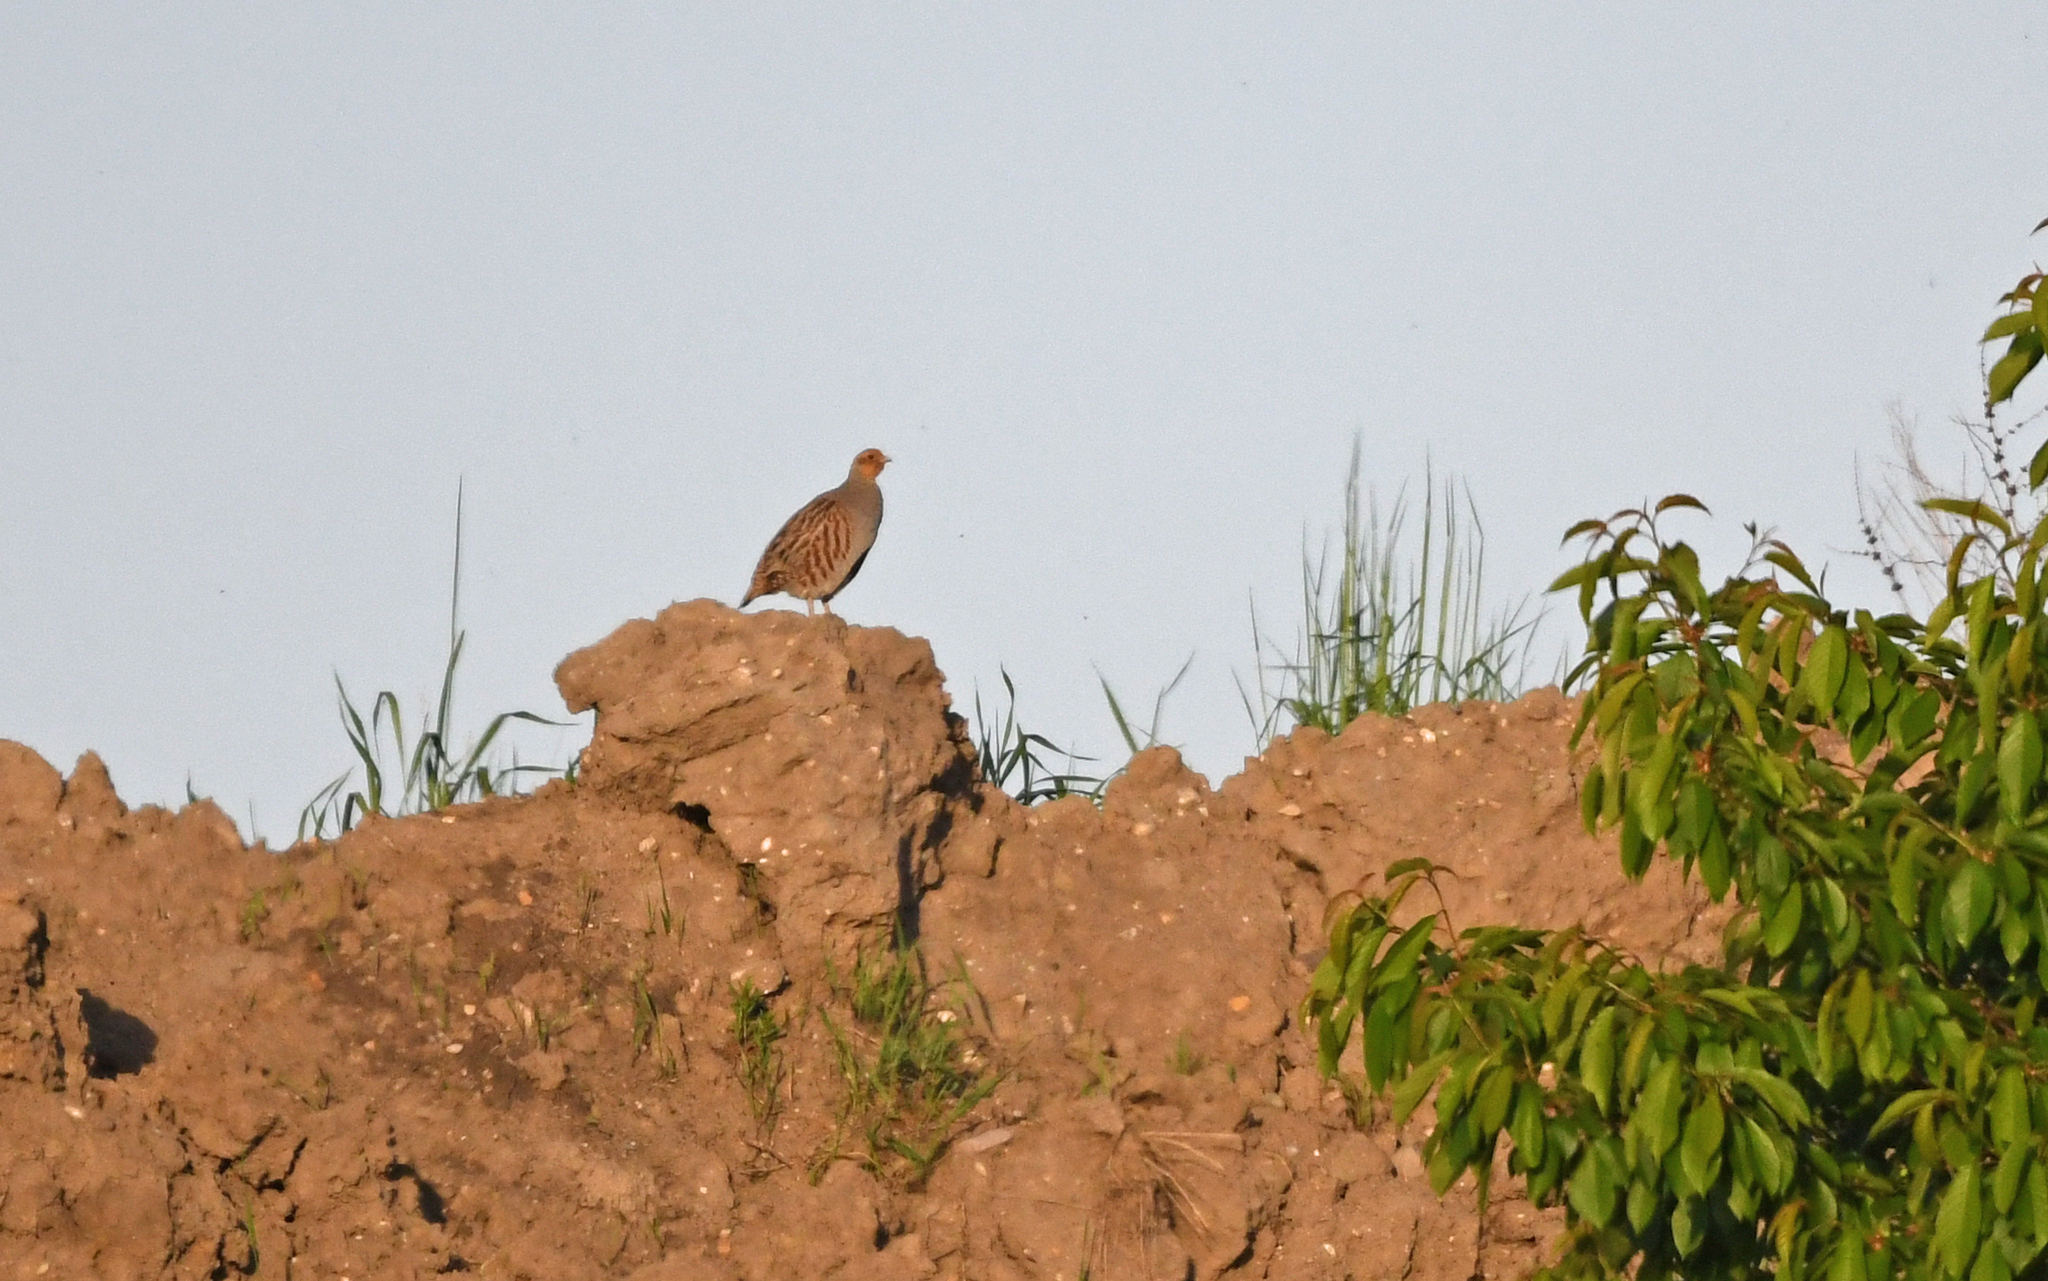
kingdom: Animalia
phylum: Chordata
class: Aves
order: Galliformes
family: Phasianidae
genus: Perdix
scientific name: Perdix perdix
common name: Grey partridge
